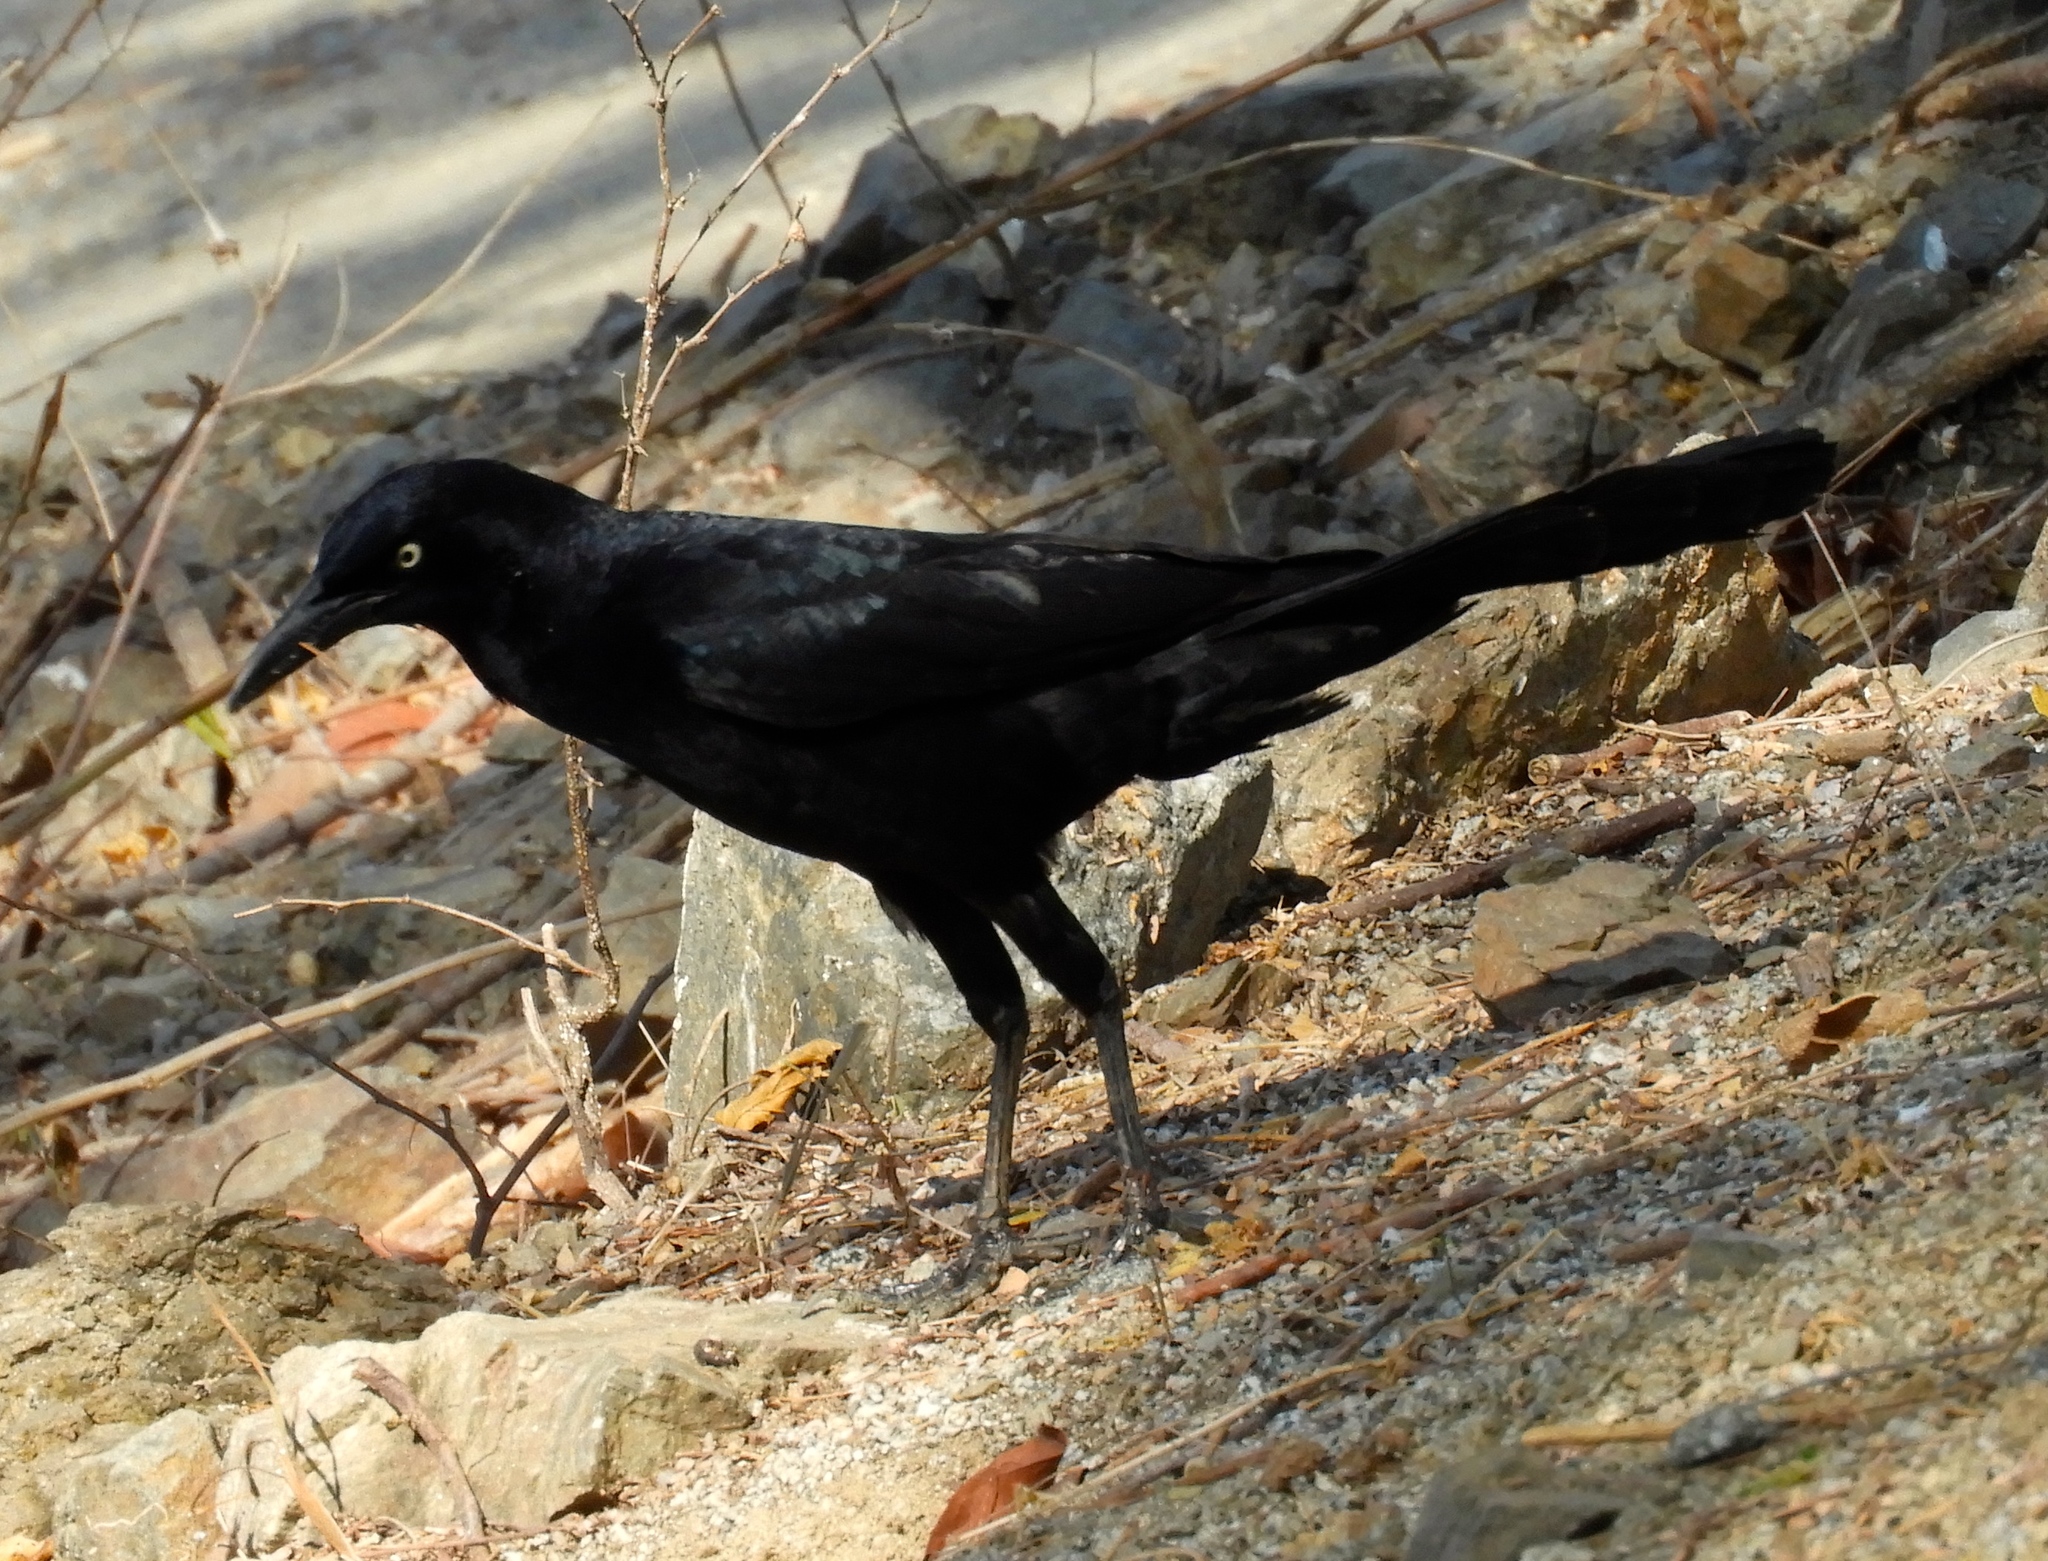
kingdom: Animalia
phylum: Chordata
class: Aves
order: Passeriformes
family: Icteridae
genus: Quiscalus
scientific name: Quiscalus mexicanus
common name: Great-tailed grackle
